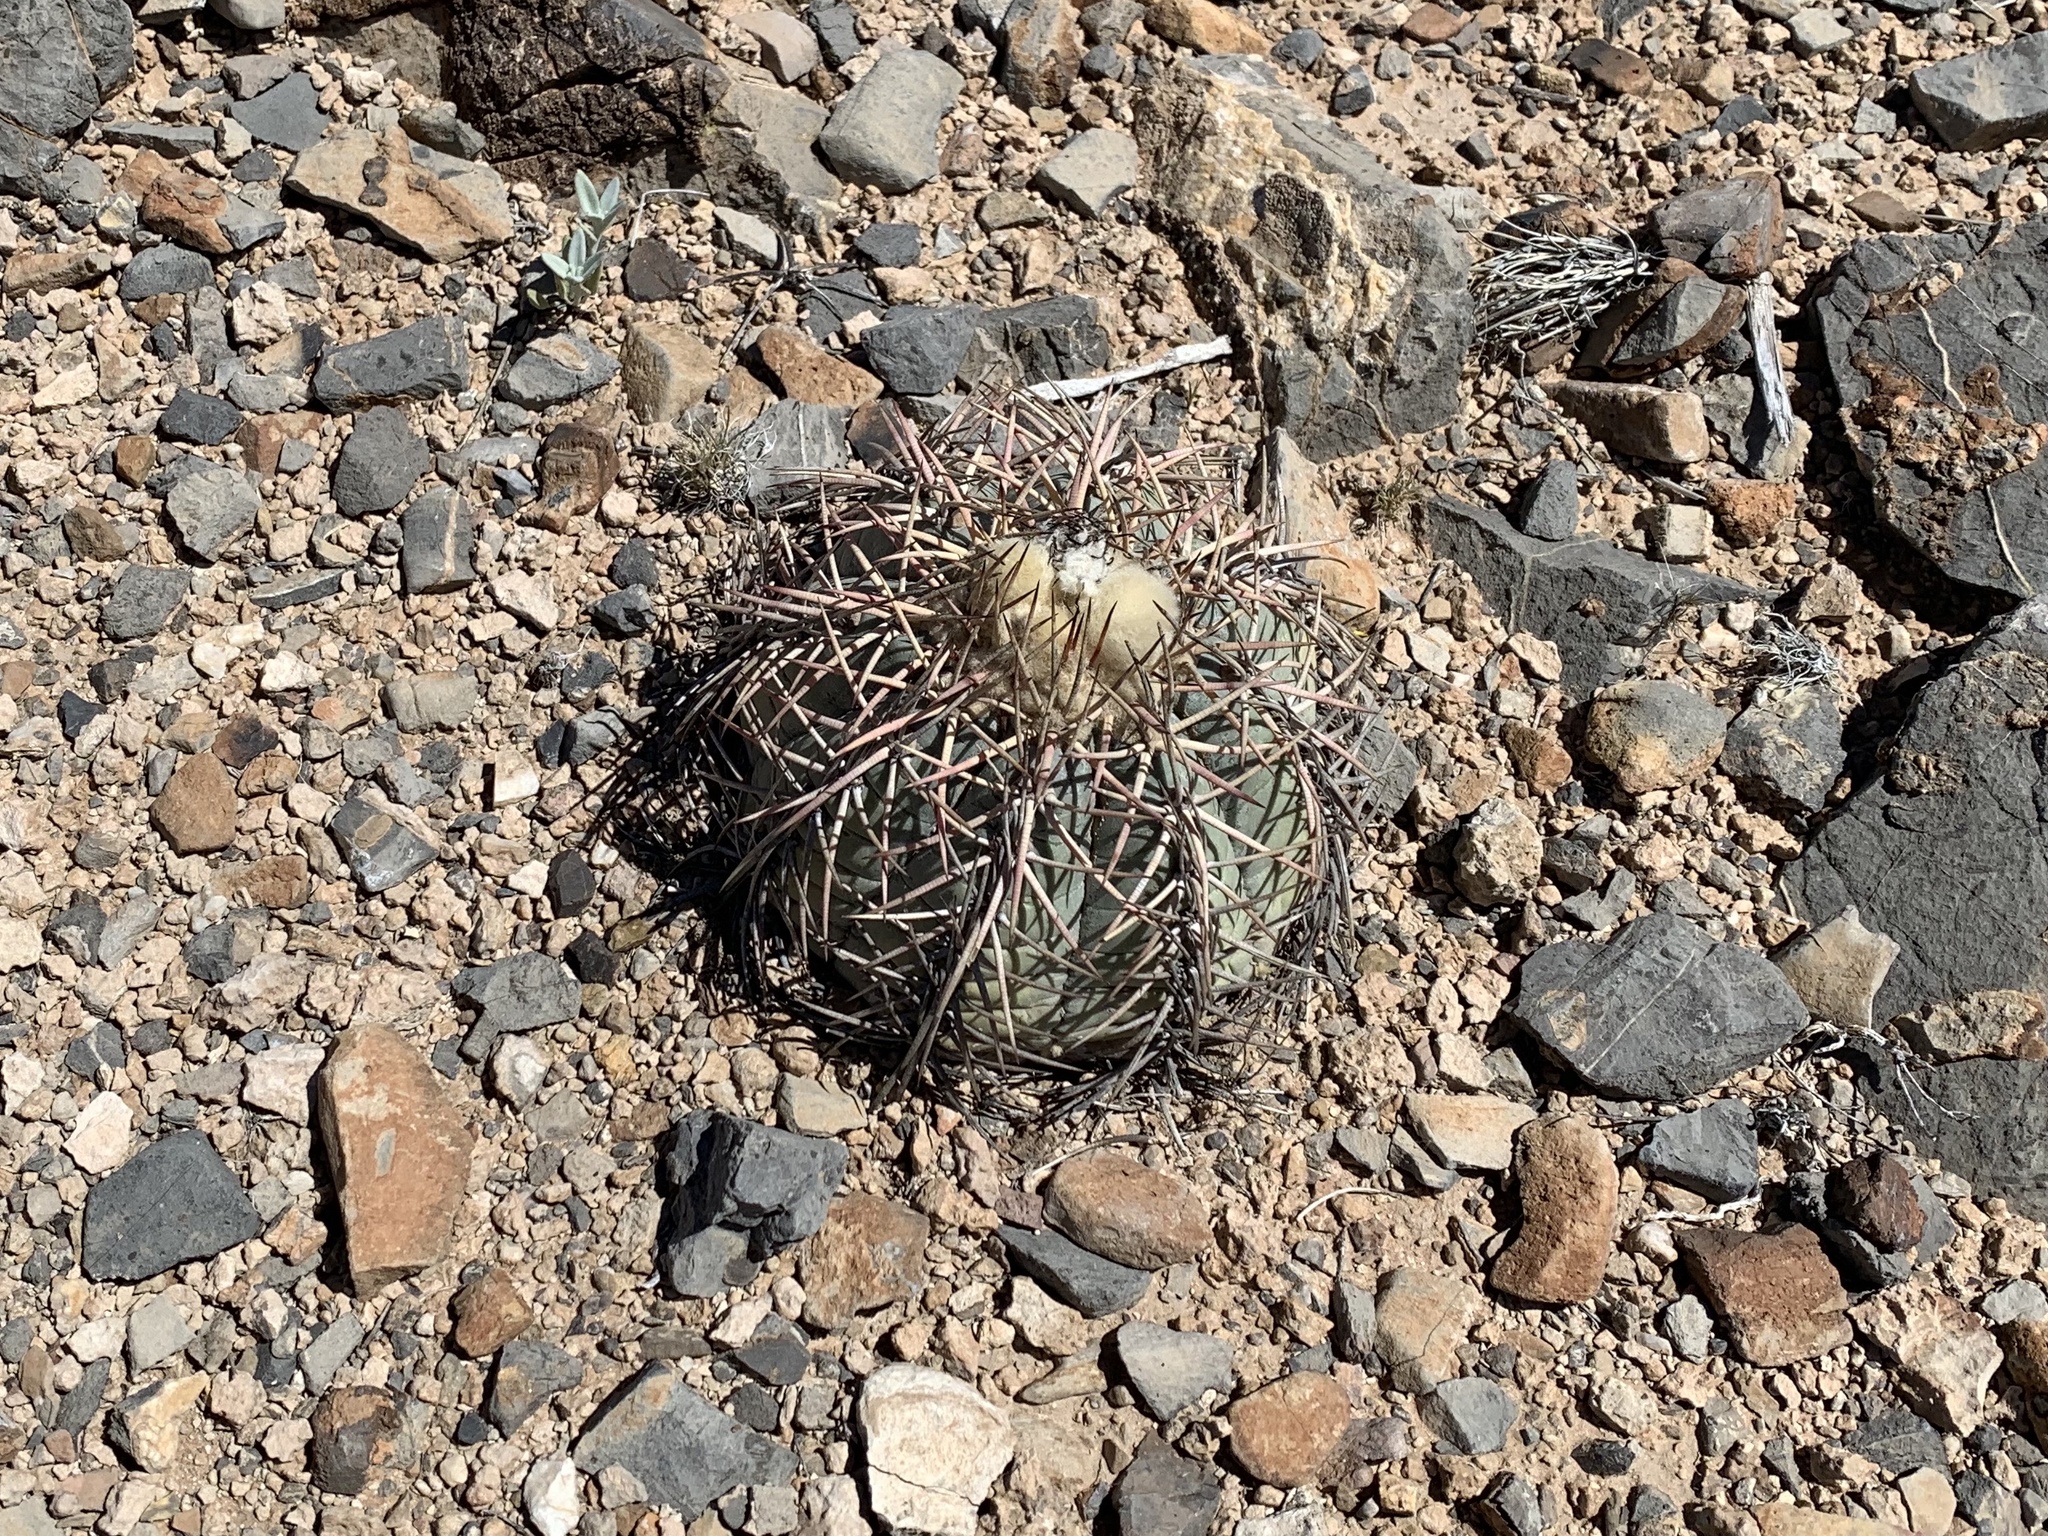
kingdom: Plantae
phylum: Tracheophyta
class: Magnoliopsida
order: Caryophyllales
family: Cactaceae
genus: Echinocactus
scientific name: Echinocactus horizonthalonius
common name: Devilshead
